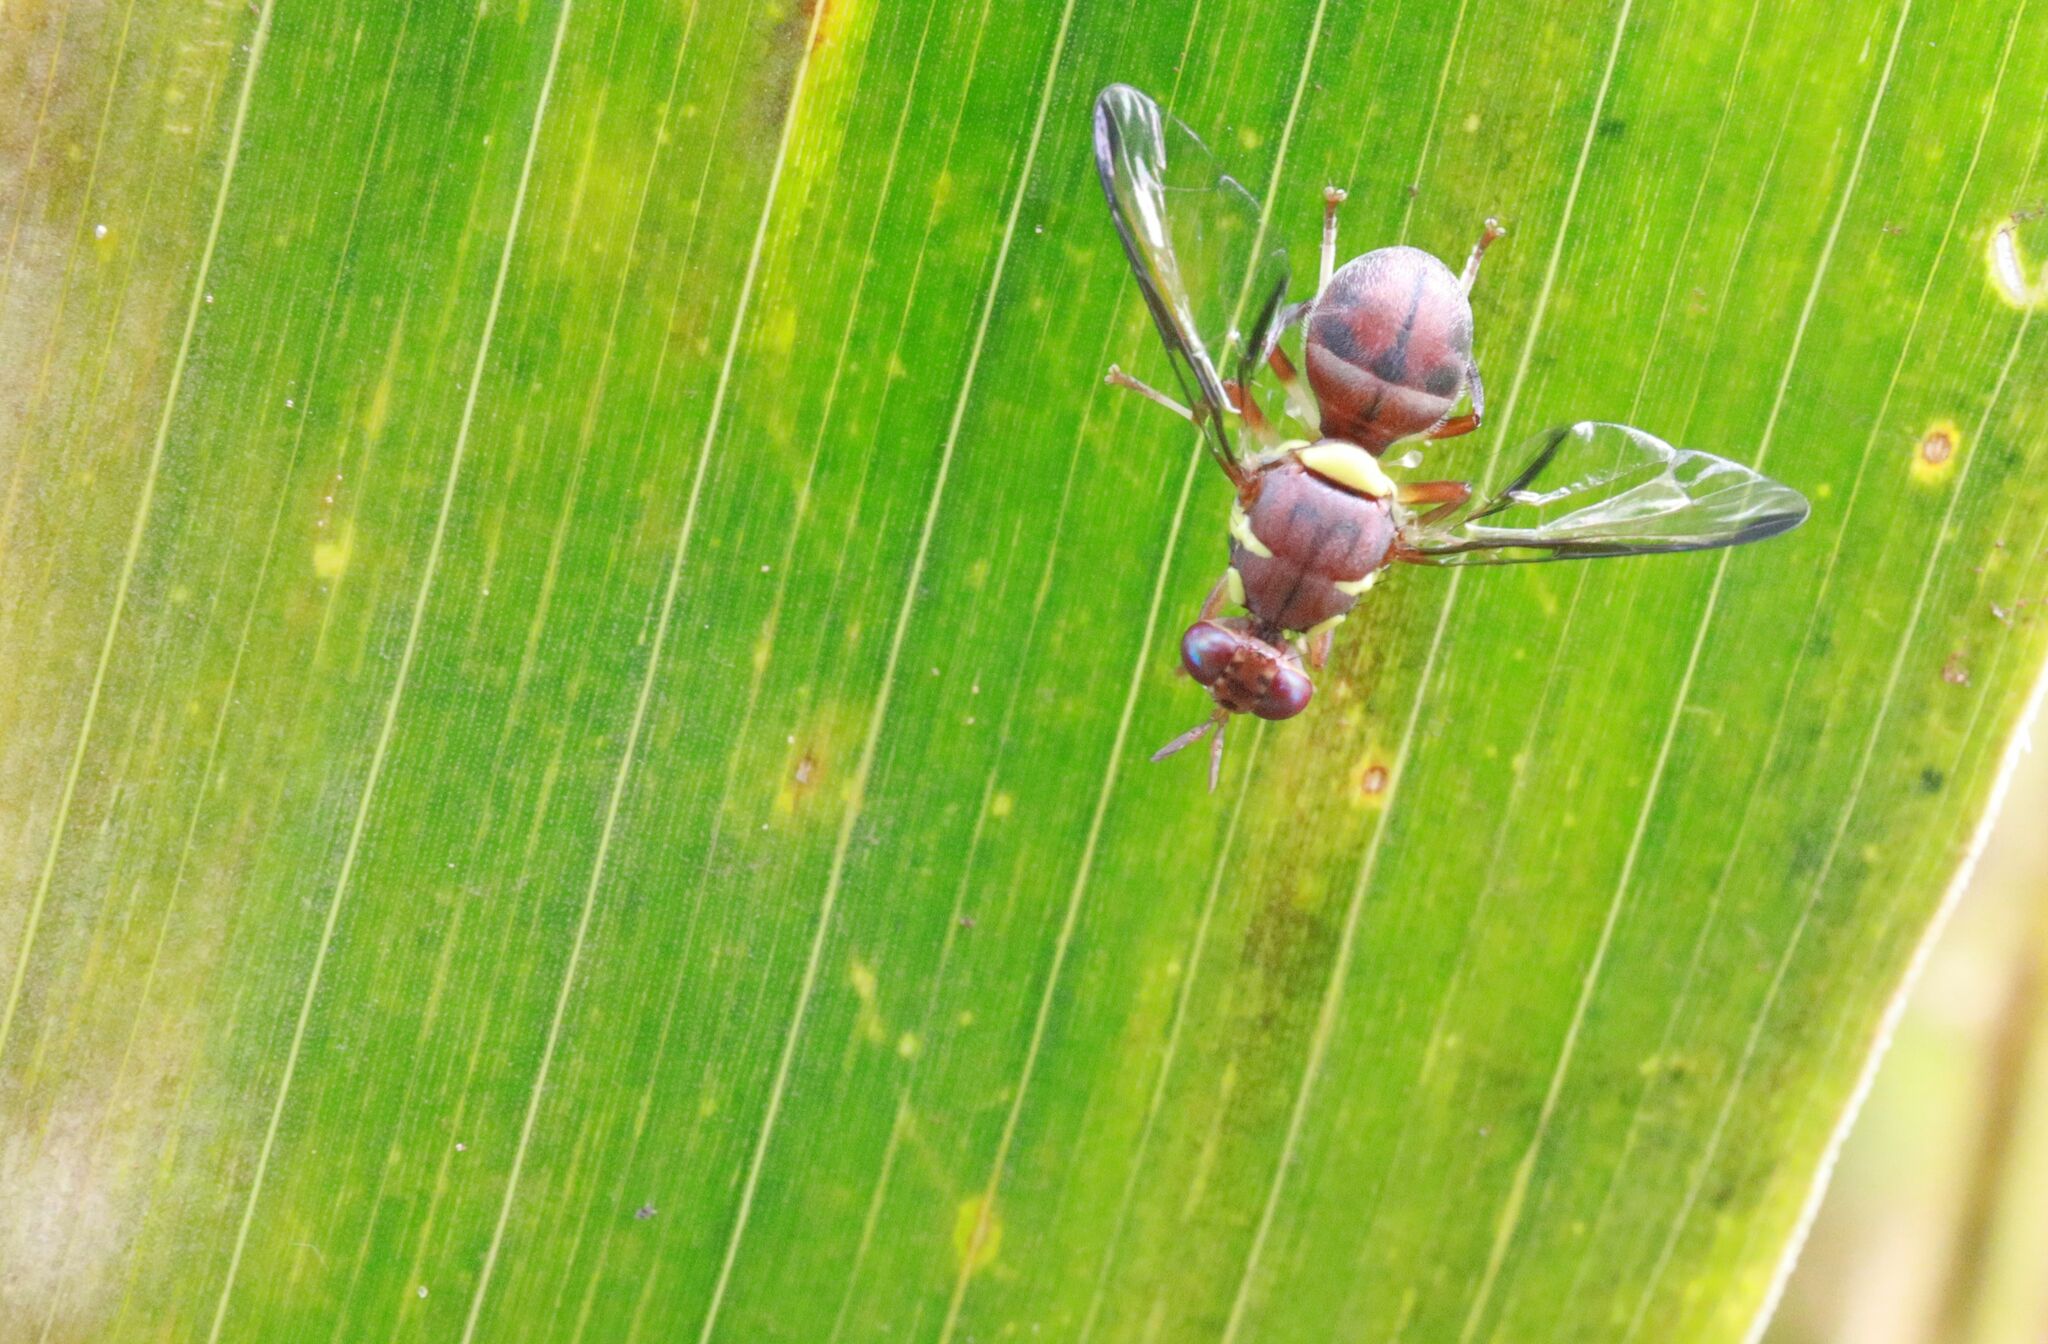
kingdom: Animalia
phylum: Arthropoda
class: Insecta
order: Diptera
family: Tephritidae
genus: Dacus
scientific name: Dacus vertebratus
